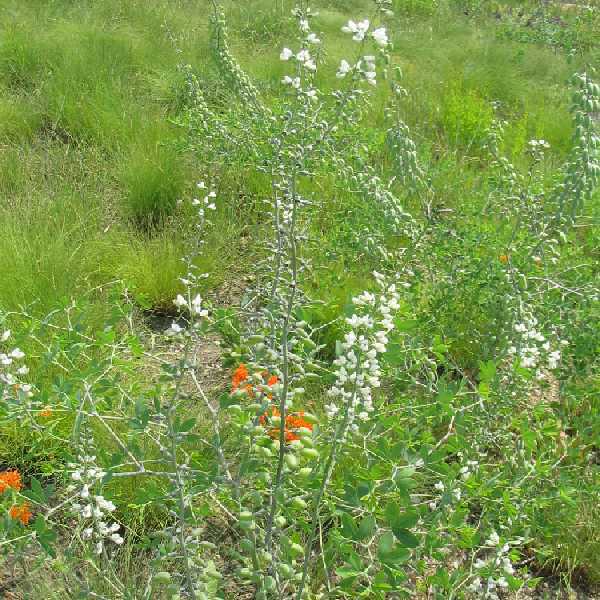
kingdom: Plantae
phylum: Tracheophyta
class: Magnoliopsida
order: Fabales
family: Fabaceae
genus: Baptisia
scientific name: Baptisia alba
